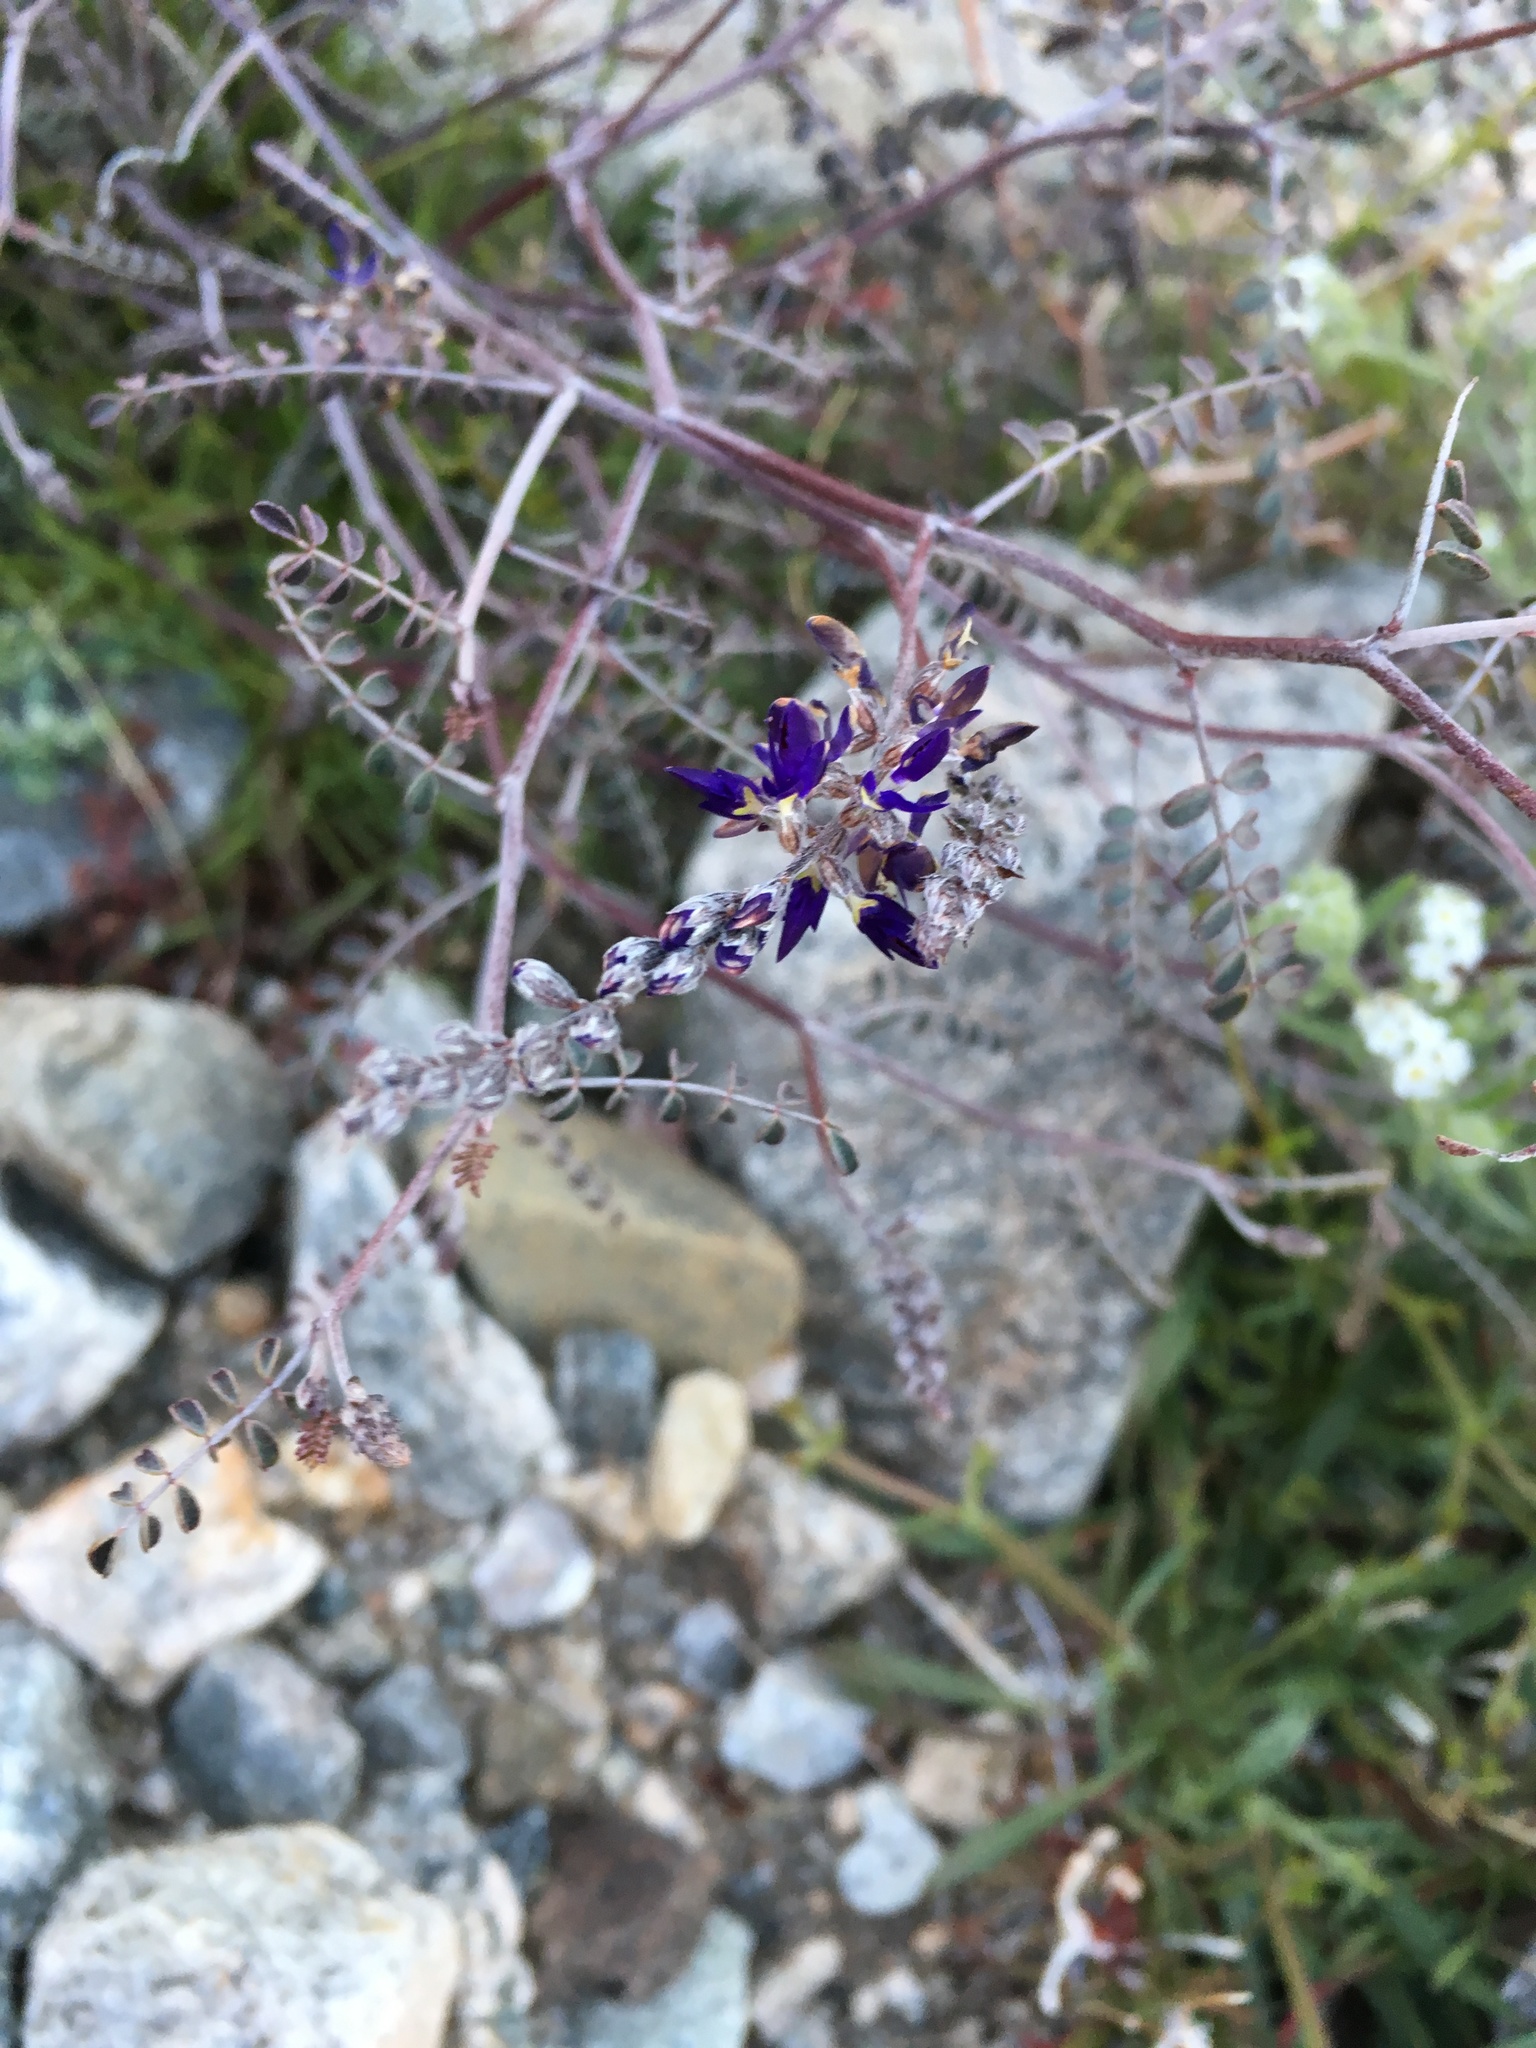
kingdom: Plantae
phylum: Tracheophyta
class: Magnoliopsida
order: Fabales
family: Fabaceae
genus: Marina
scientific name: Marina parryi
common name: Parry's marina
